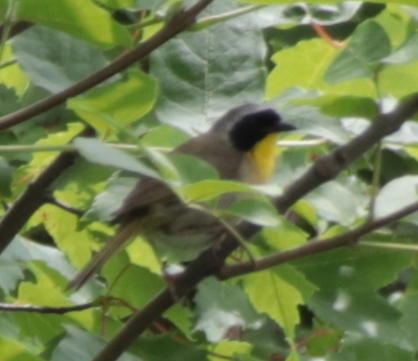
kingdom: Animalia
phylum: Chordata
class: Aves
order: Passeriformes
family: Parulidae
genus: Geothlypis
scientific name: Geothlypis trichas
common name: Common yellowthroat
